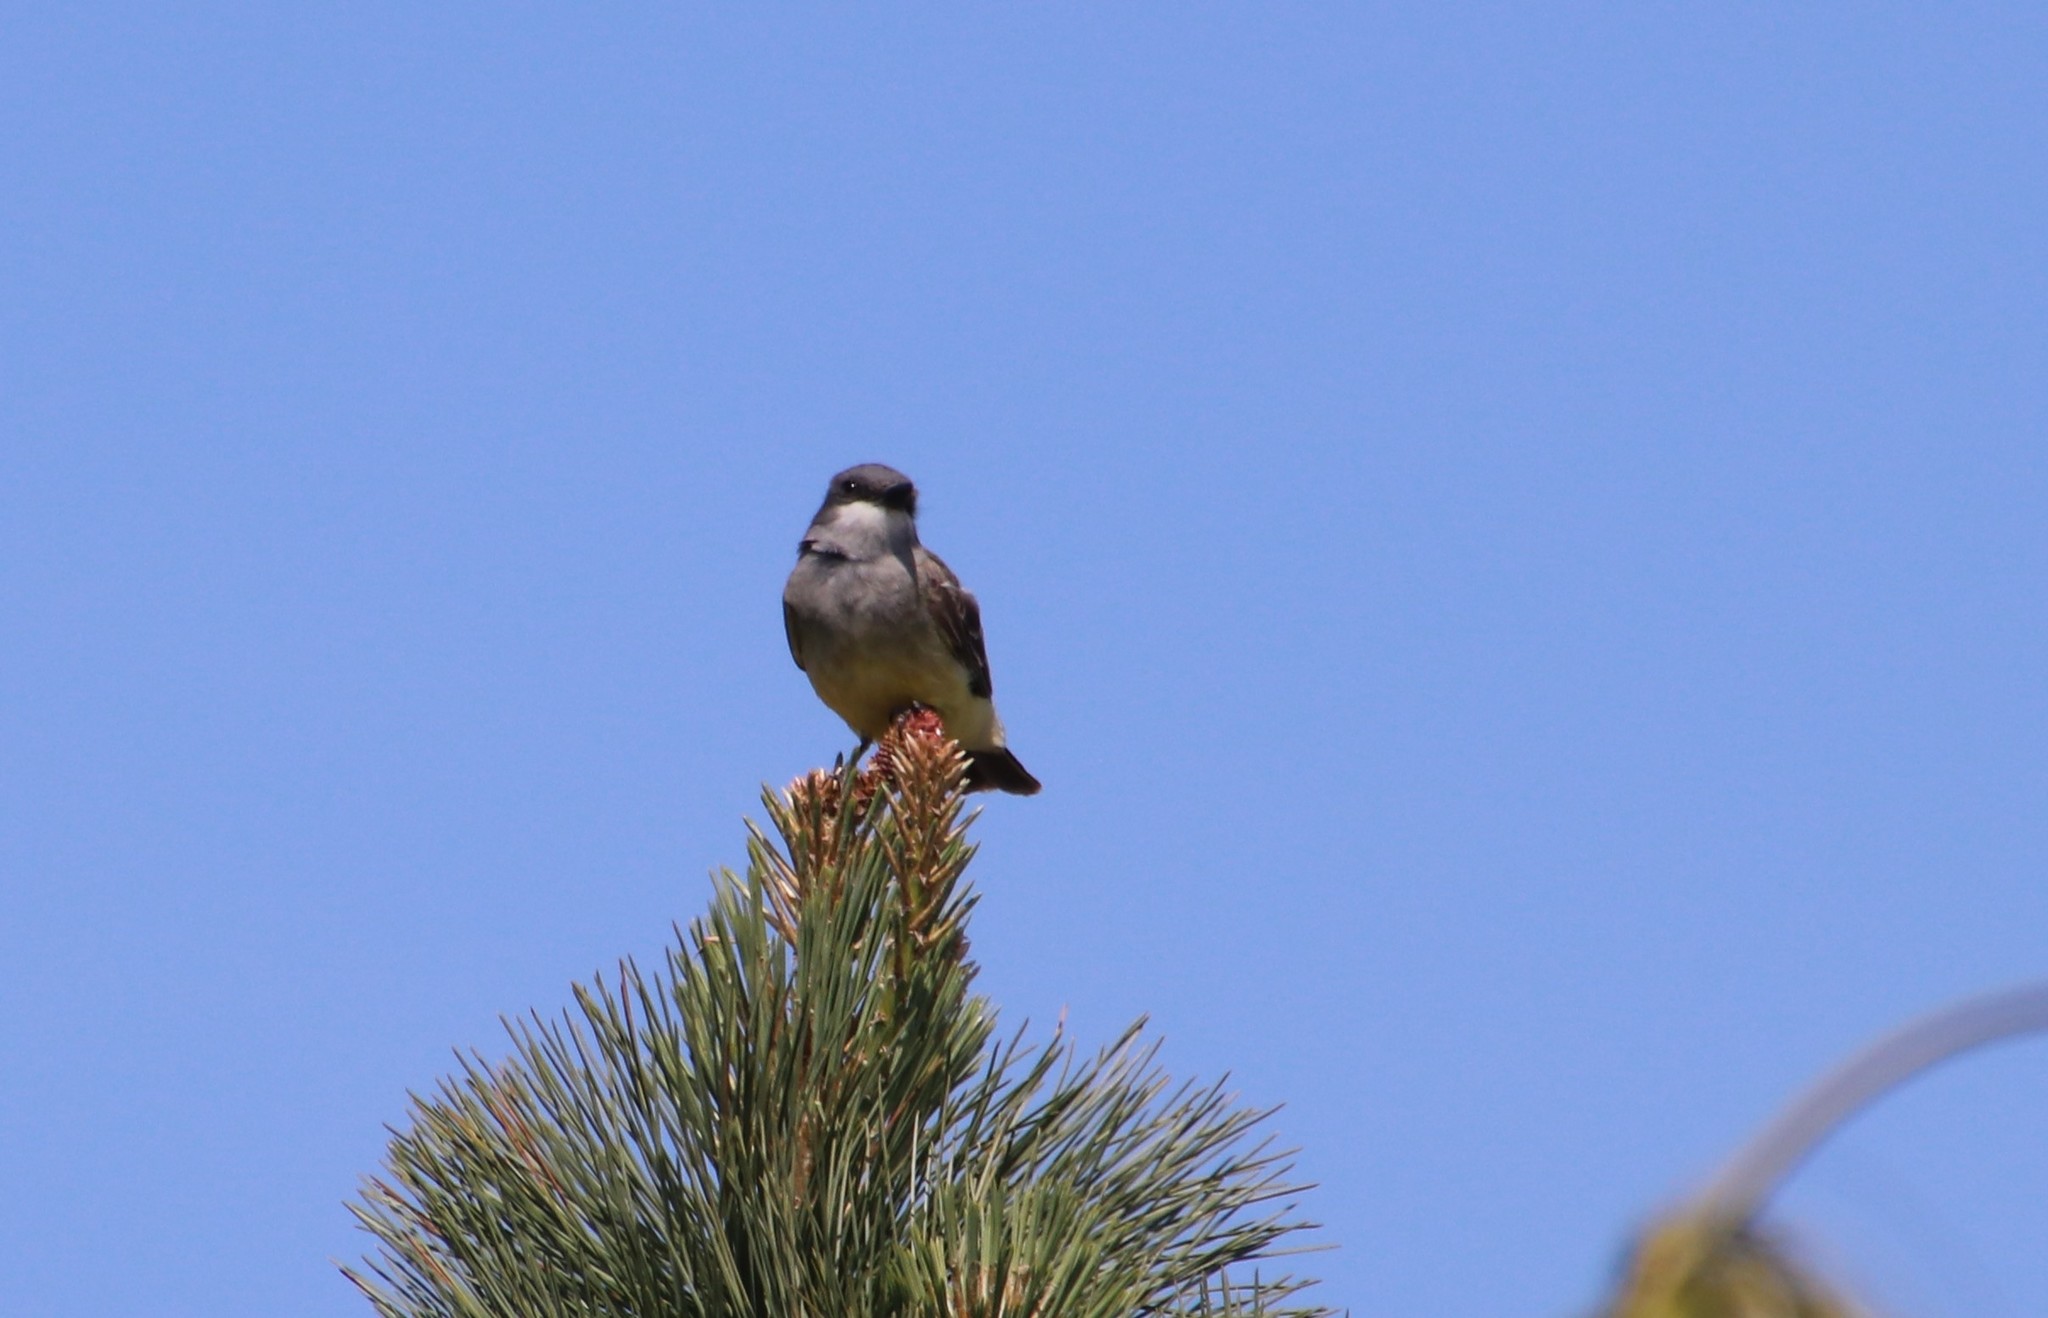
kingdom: Animalia
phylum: Chordata
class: Aves
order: Passeriformes
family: Tyrannidae
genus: Tyrannus
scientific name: Tyrannus vociferans
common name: Cassin's kingbird
